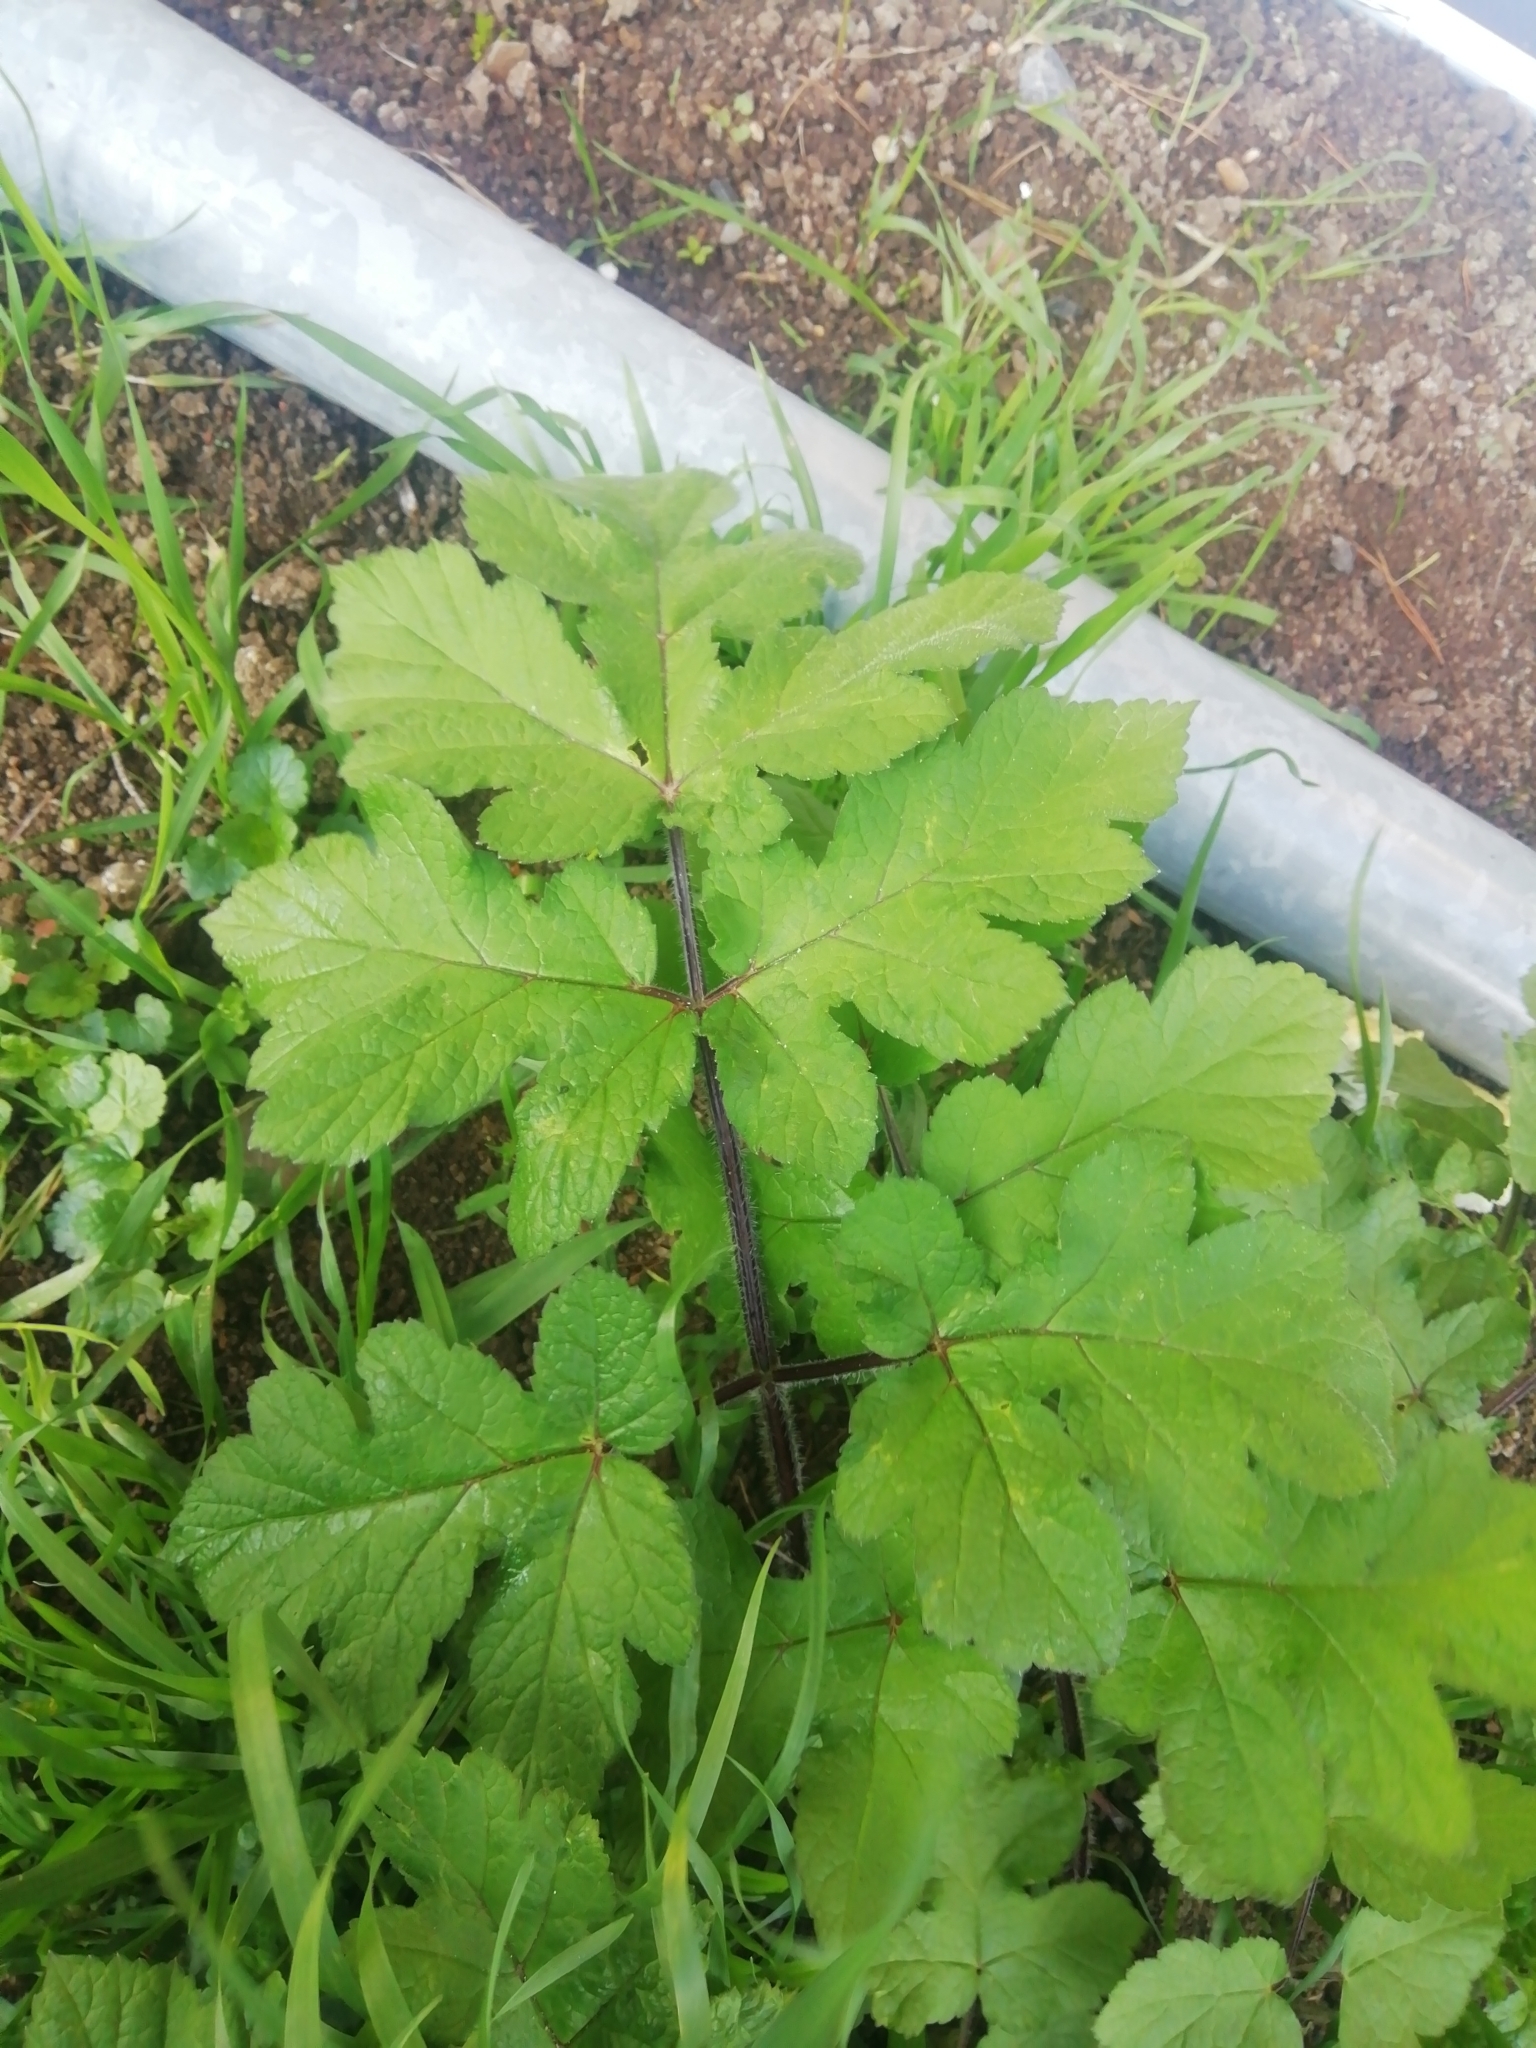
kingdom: Plantae
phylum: Tracheophyta
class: Magnoliopsida
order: Apiales
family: Apiaceae
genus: Heracleum
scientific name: Heracleum sphondylium
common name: Hogweed
